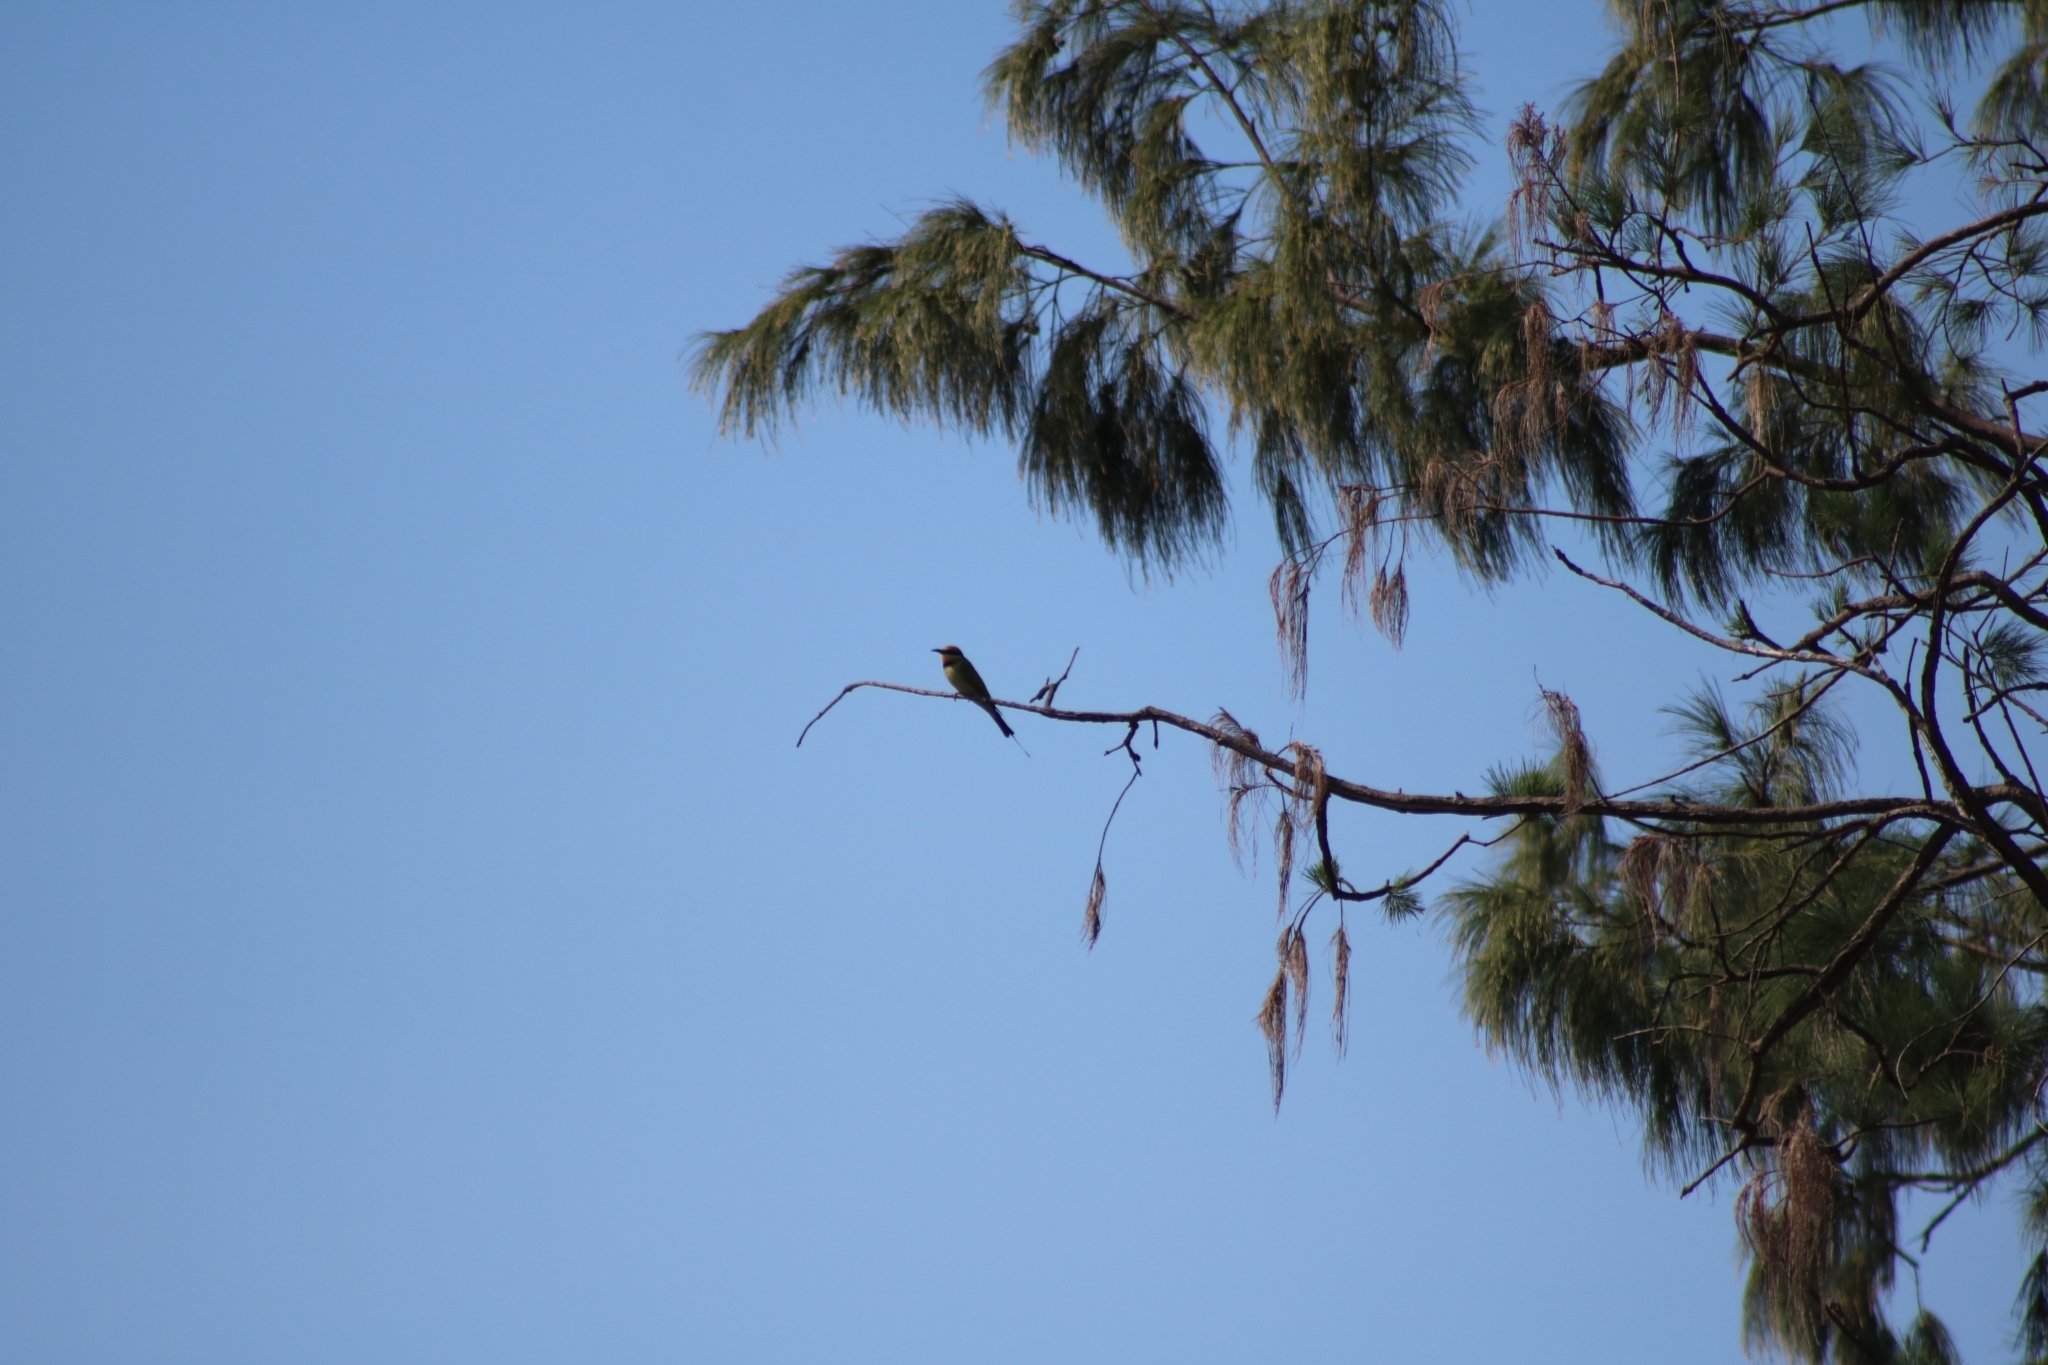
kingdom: Animalia
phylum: Chordata
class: Aves
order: Coraciiformes
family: Meropidae
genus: Merops
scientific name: Merops ornatus
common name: Rainbow bee-eater
